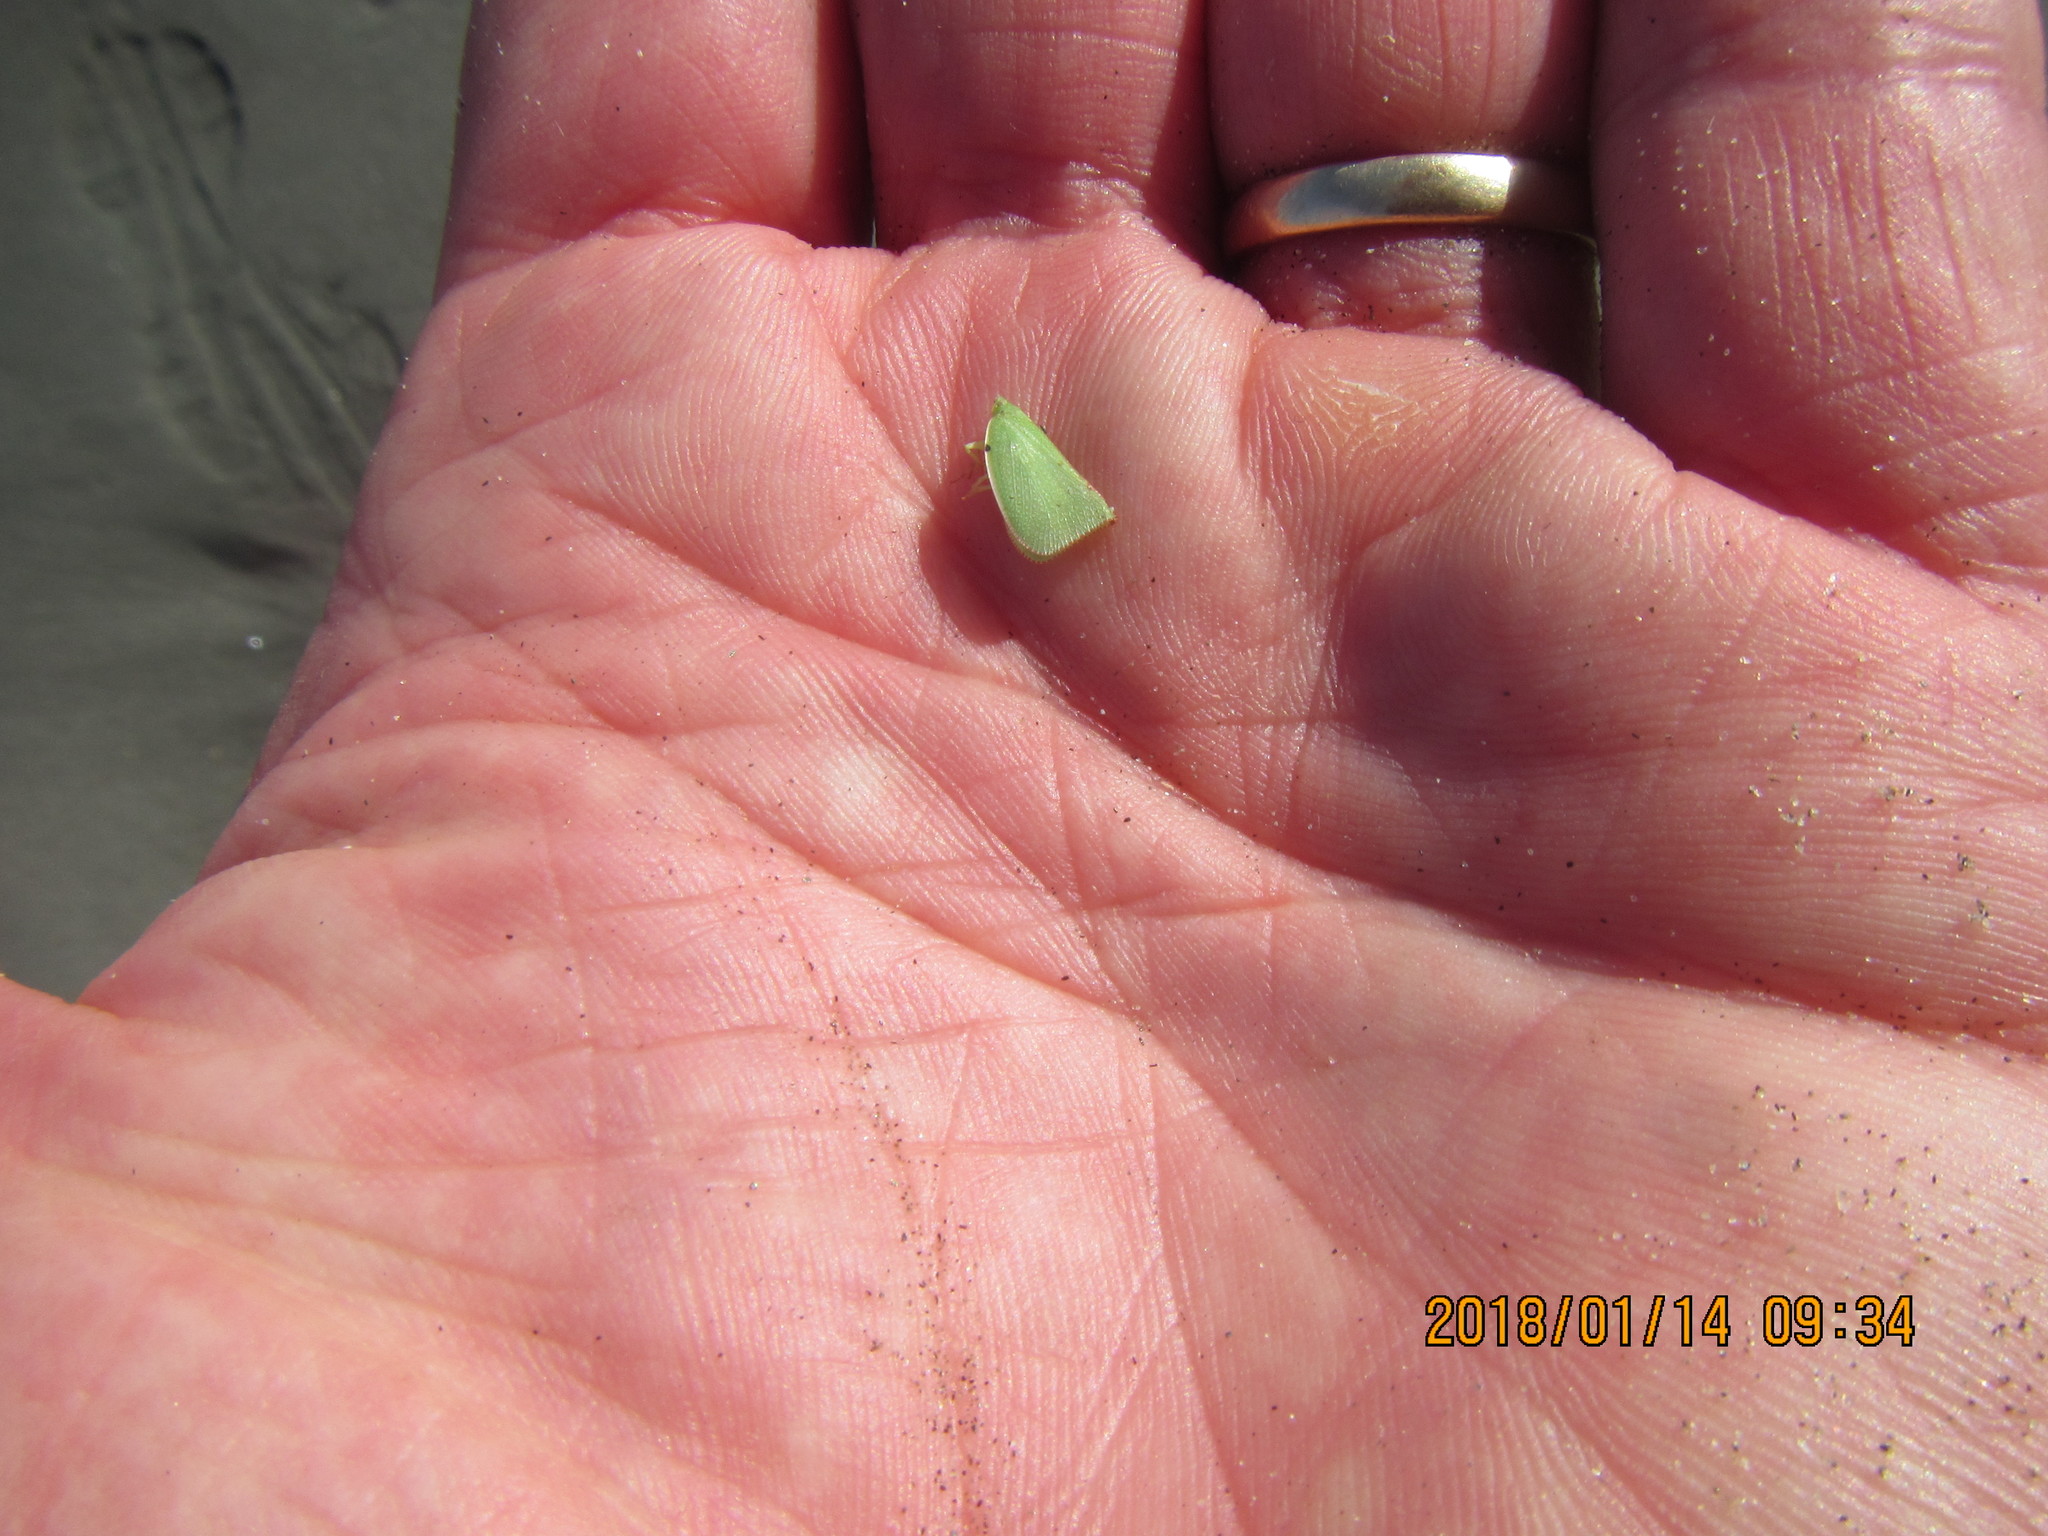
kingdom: Animalia
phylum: Arthropoda
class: Insecta
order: Hemiptera
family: Flatidae
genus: Siphanta
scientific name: Siphanta acuta
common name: Torpedo bug
